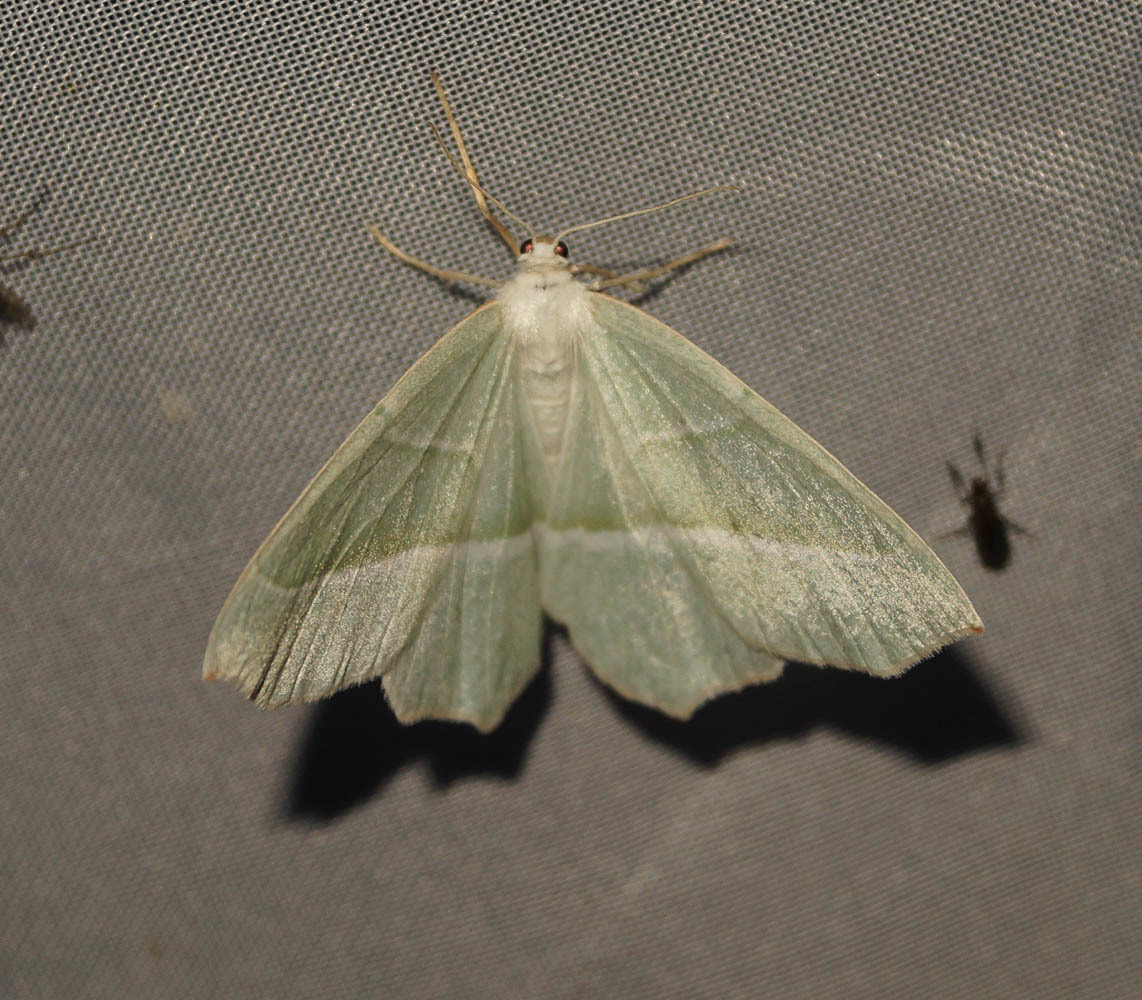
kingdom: Animalia
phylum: Arthropoda
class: Insecta
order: Lepidoptera
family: Geometridae
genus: Campaea
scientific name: Campaea margaritaria
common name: Light emerald
